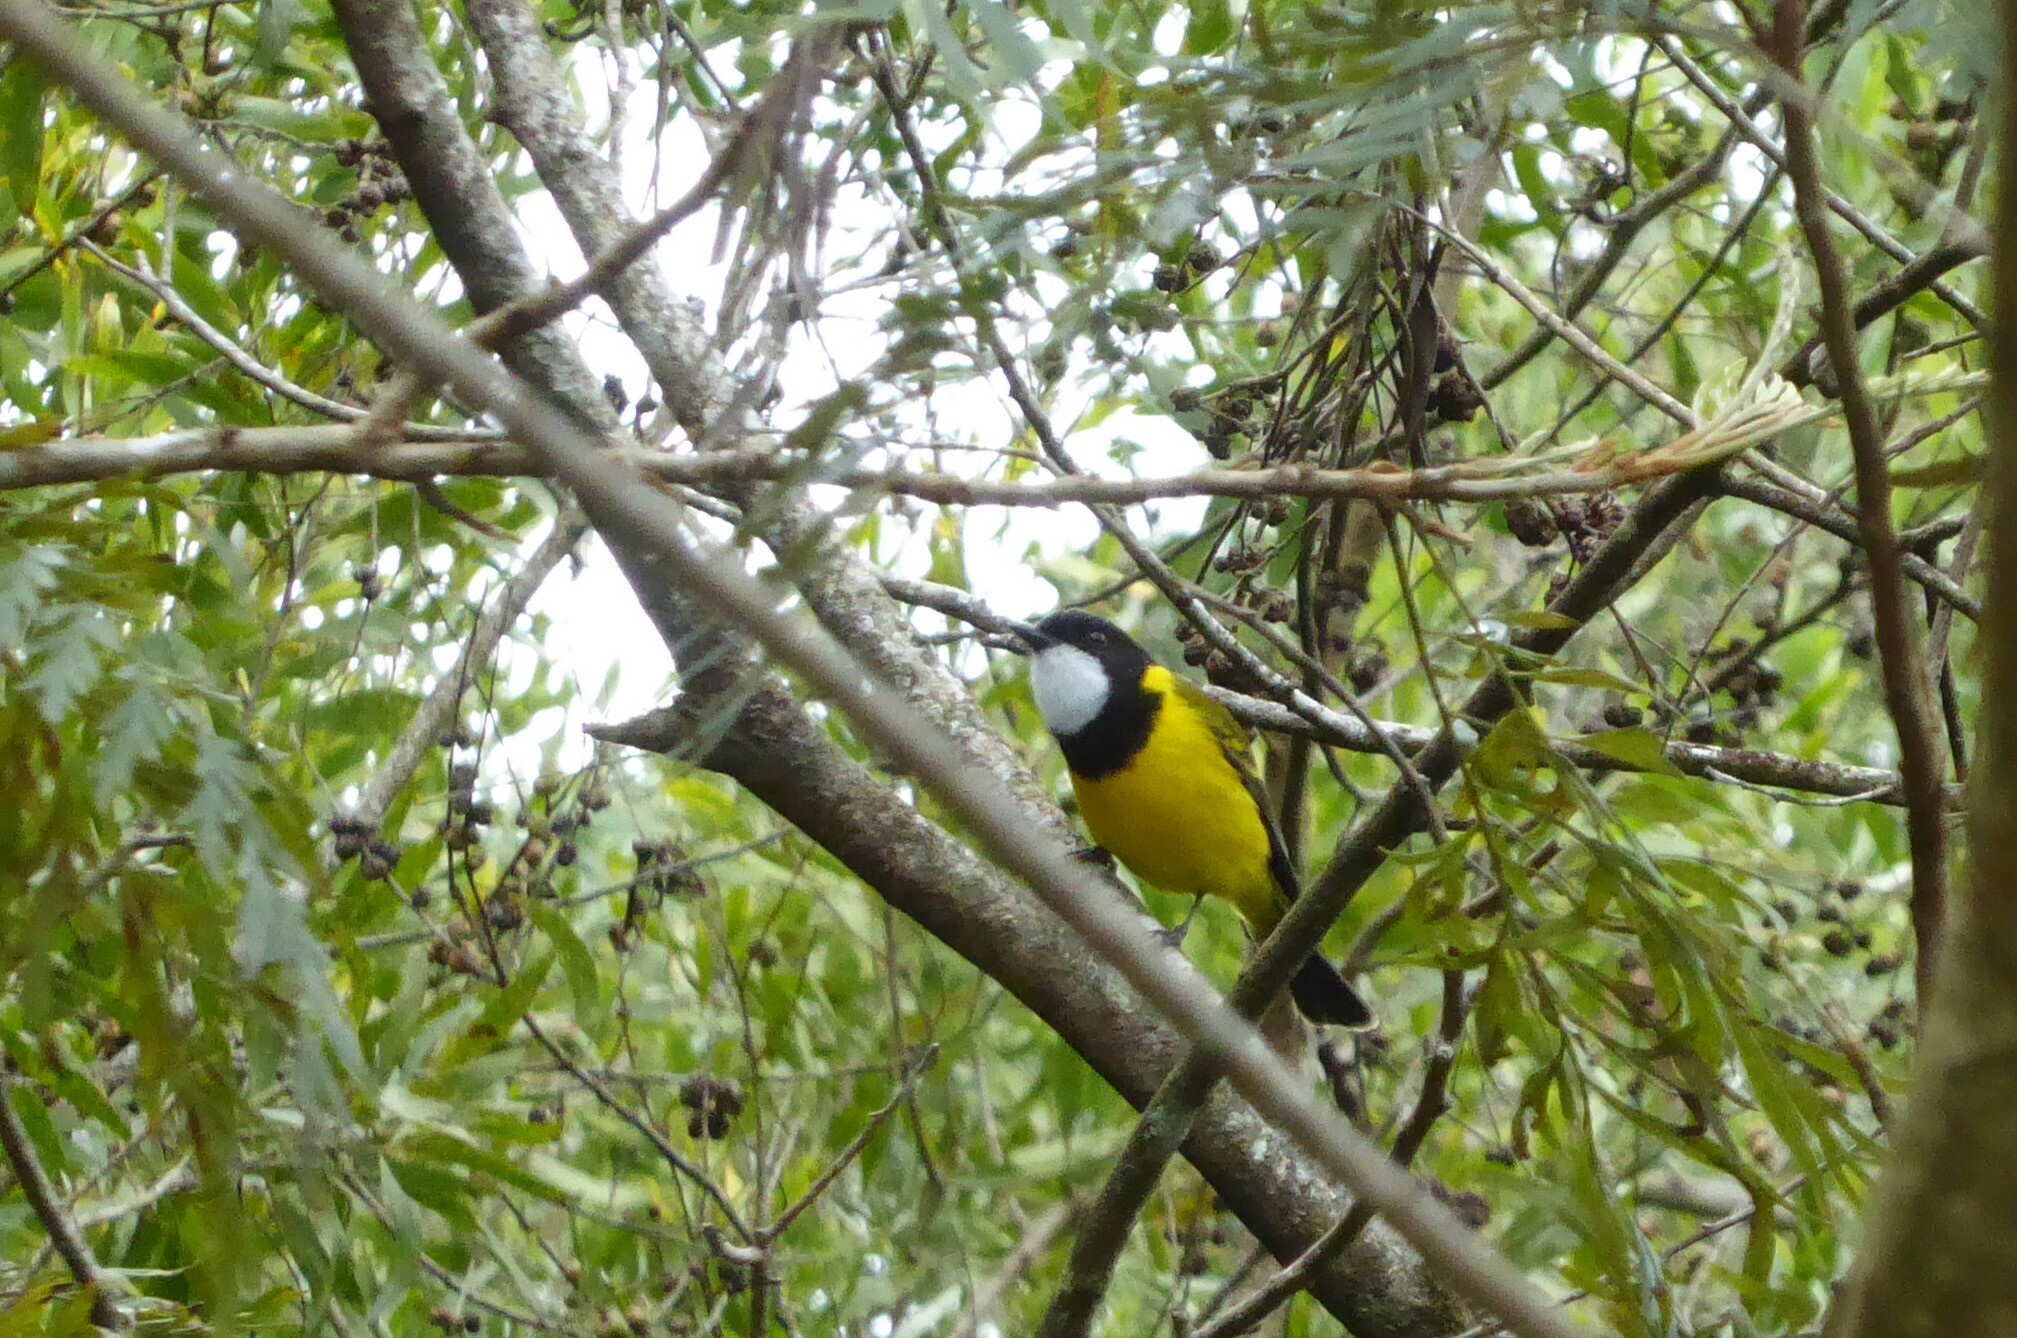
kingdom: Animalia
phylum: Chordata
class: Aves
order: Passeriformes
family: Pachycephalidae
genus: Pachycephala
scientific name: Pachycephala pectoralis
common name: Australian golden whistler
